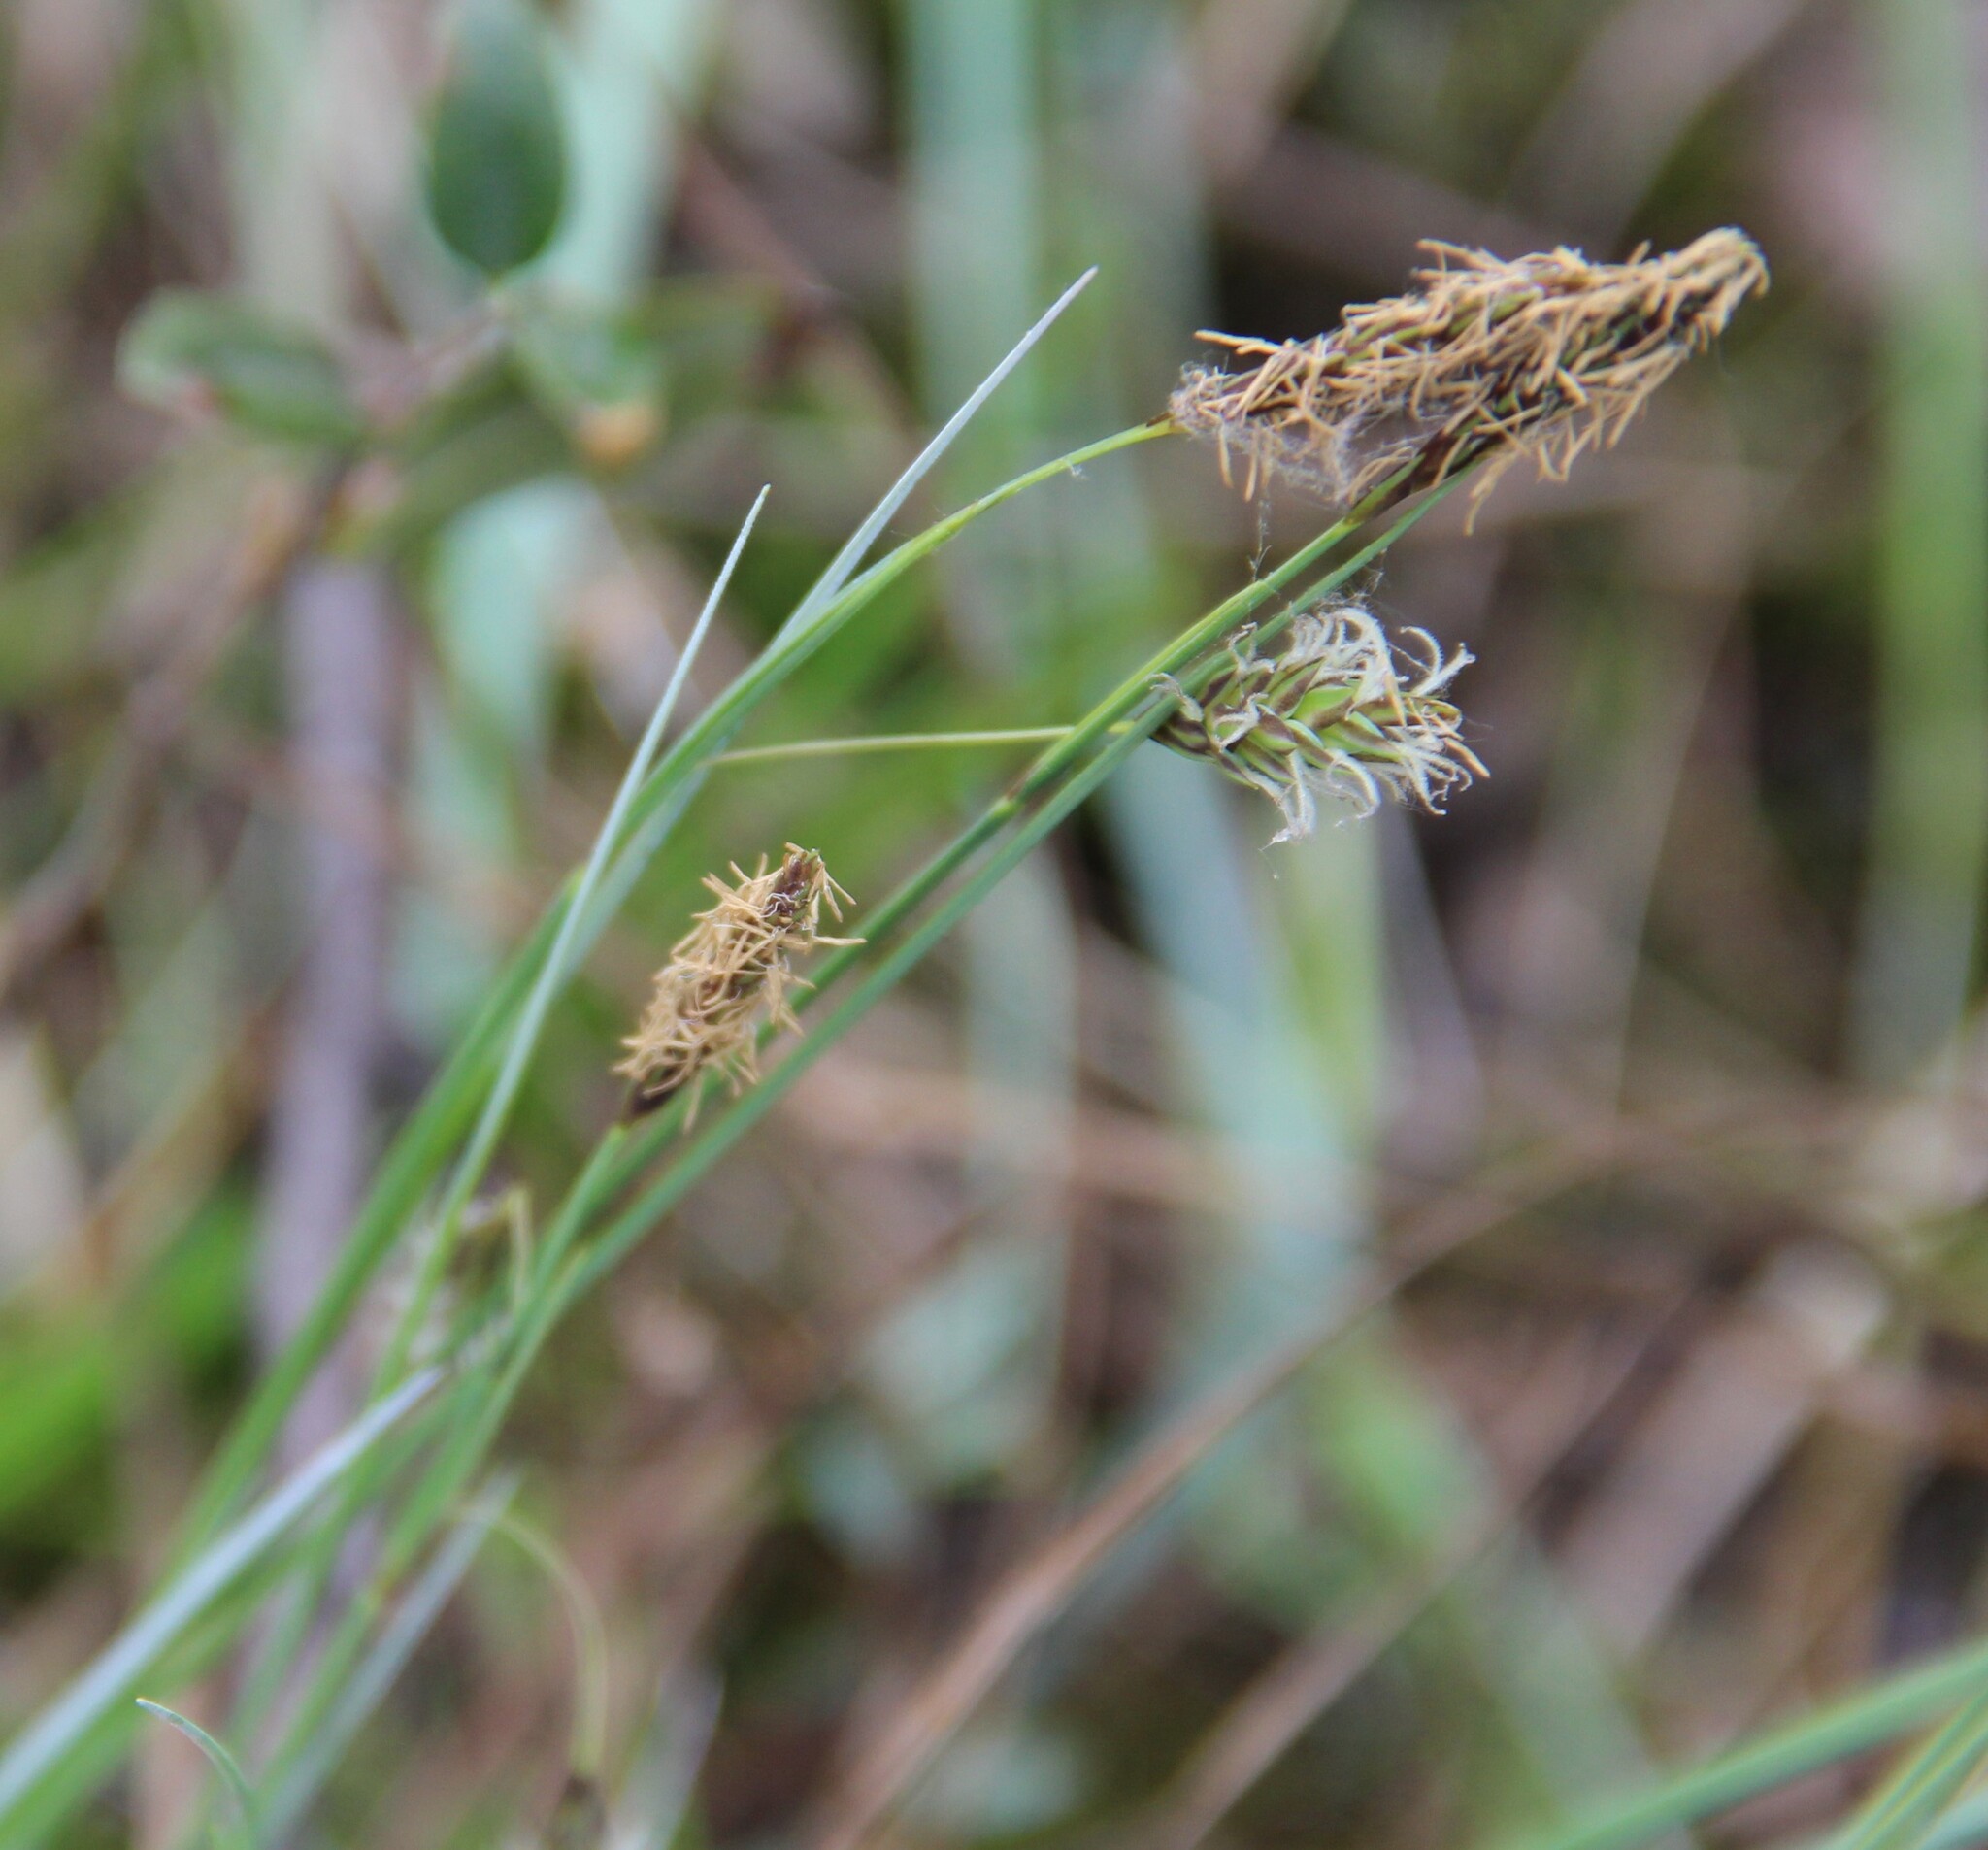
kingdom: Plantae
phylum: Tracheophyta
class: Liliopsida
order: Poales
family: Cyperaceae
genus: Carex
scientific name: Carex limosa
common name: Bog sedge
